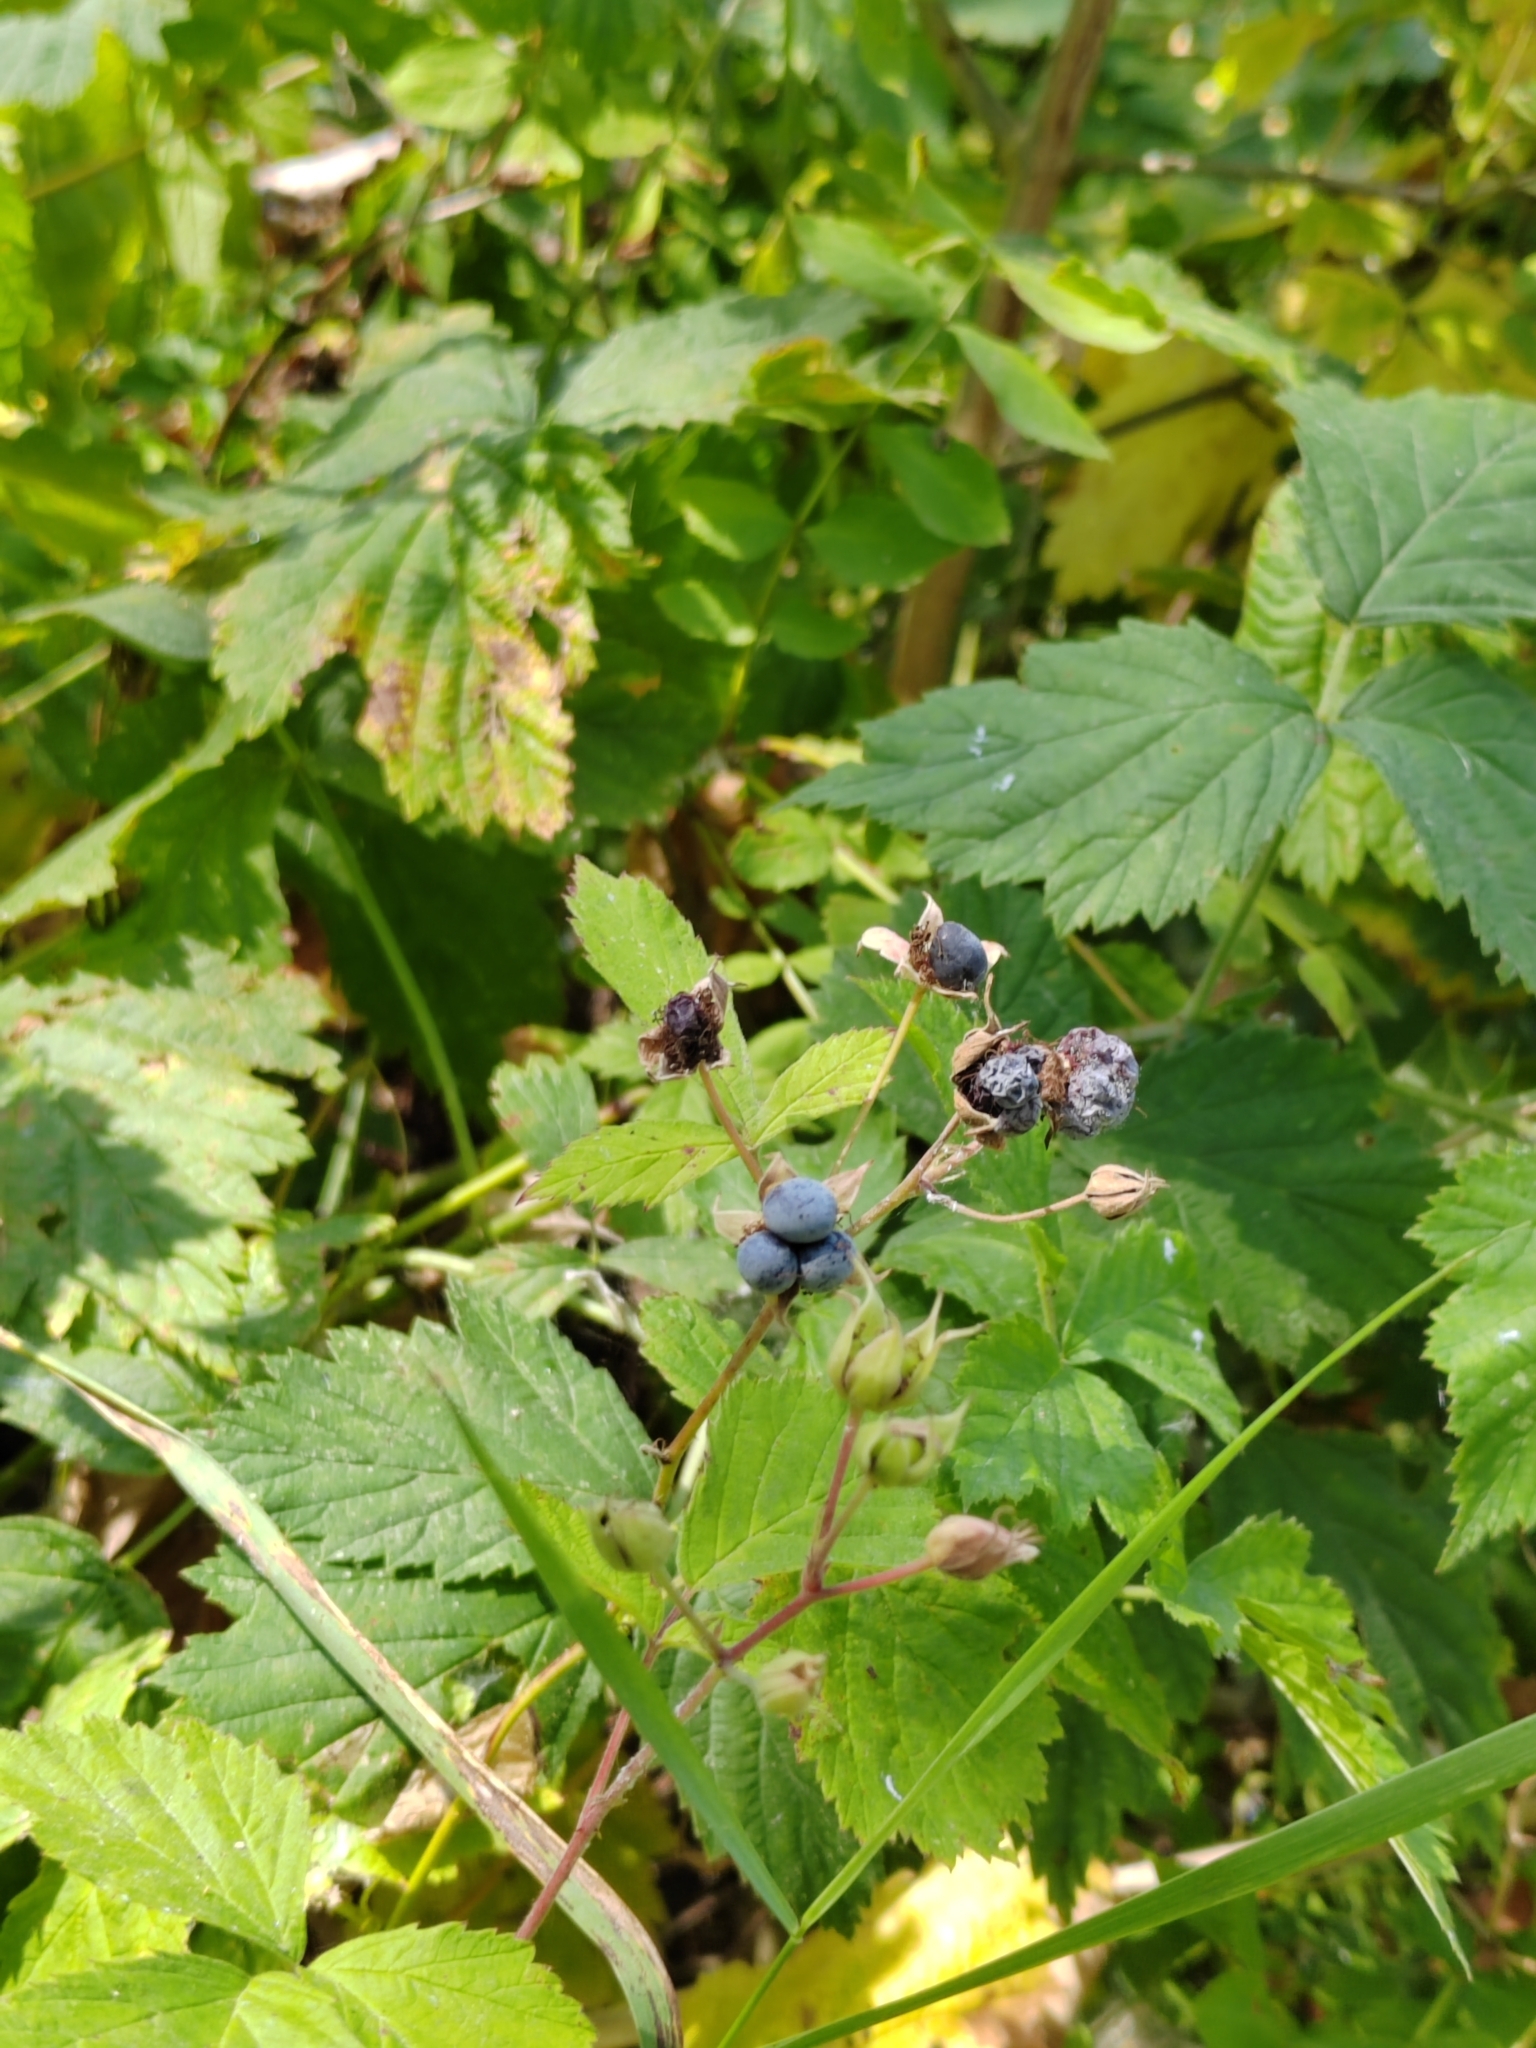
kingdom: Plantae
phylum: Tracheophyta
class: Magnoliopsida
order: Rosales
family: Rosaceae
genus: Rubus
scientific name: Rubus caesius
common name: Dewberry
